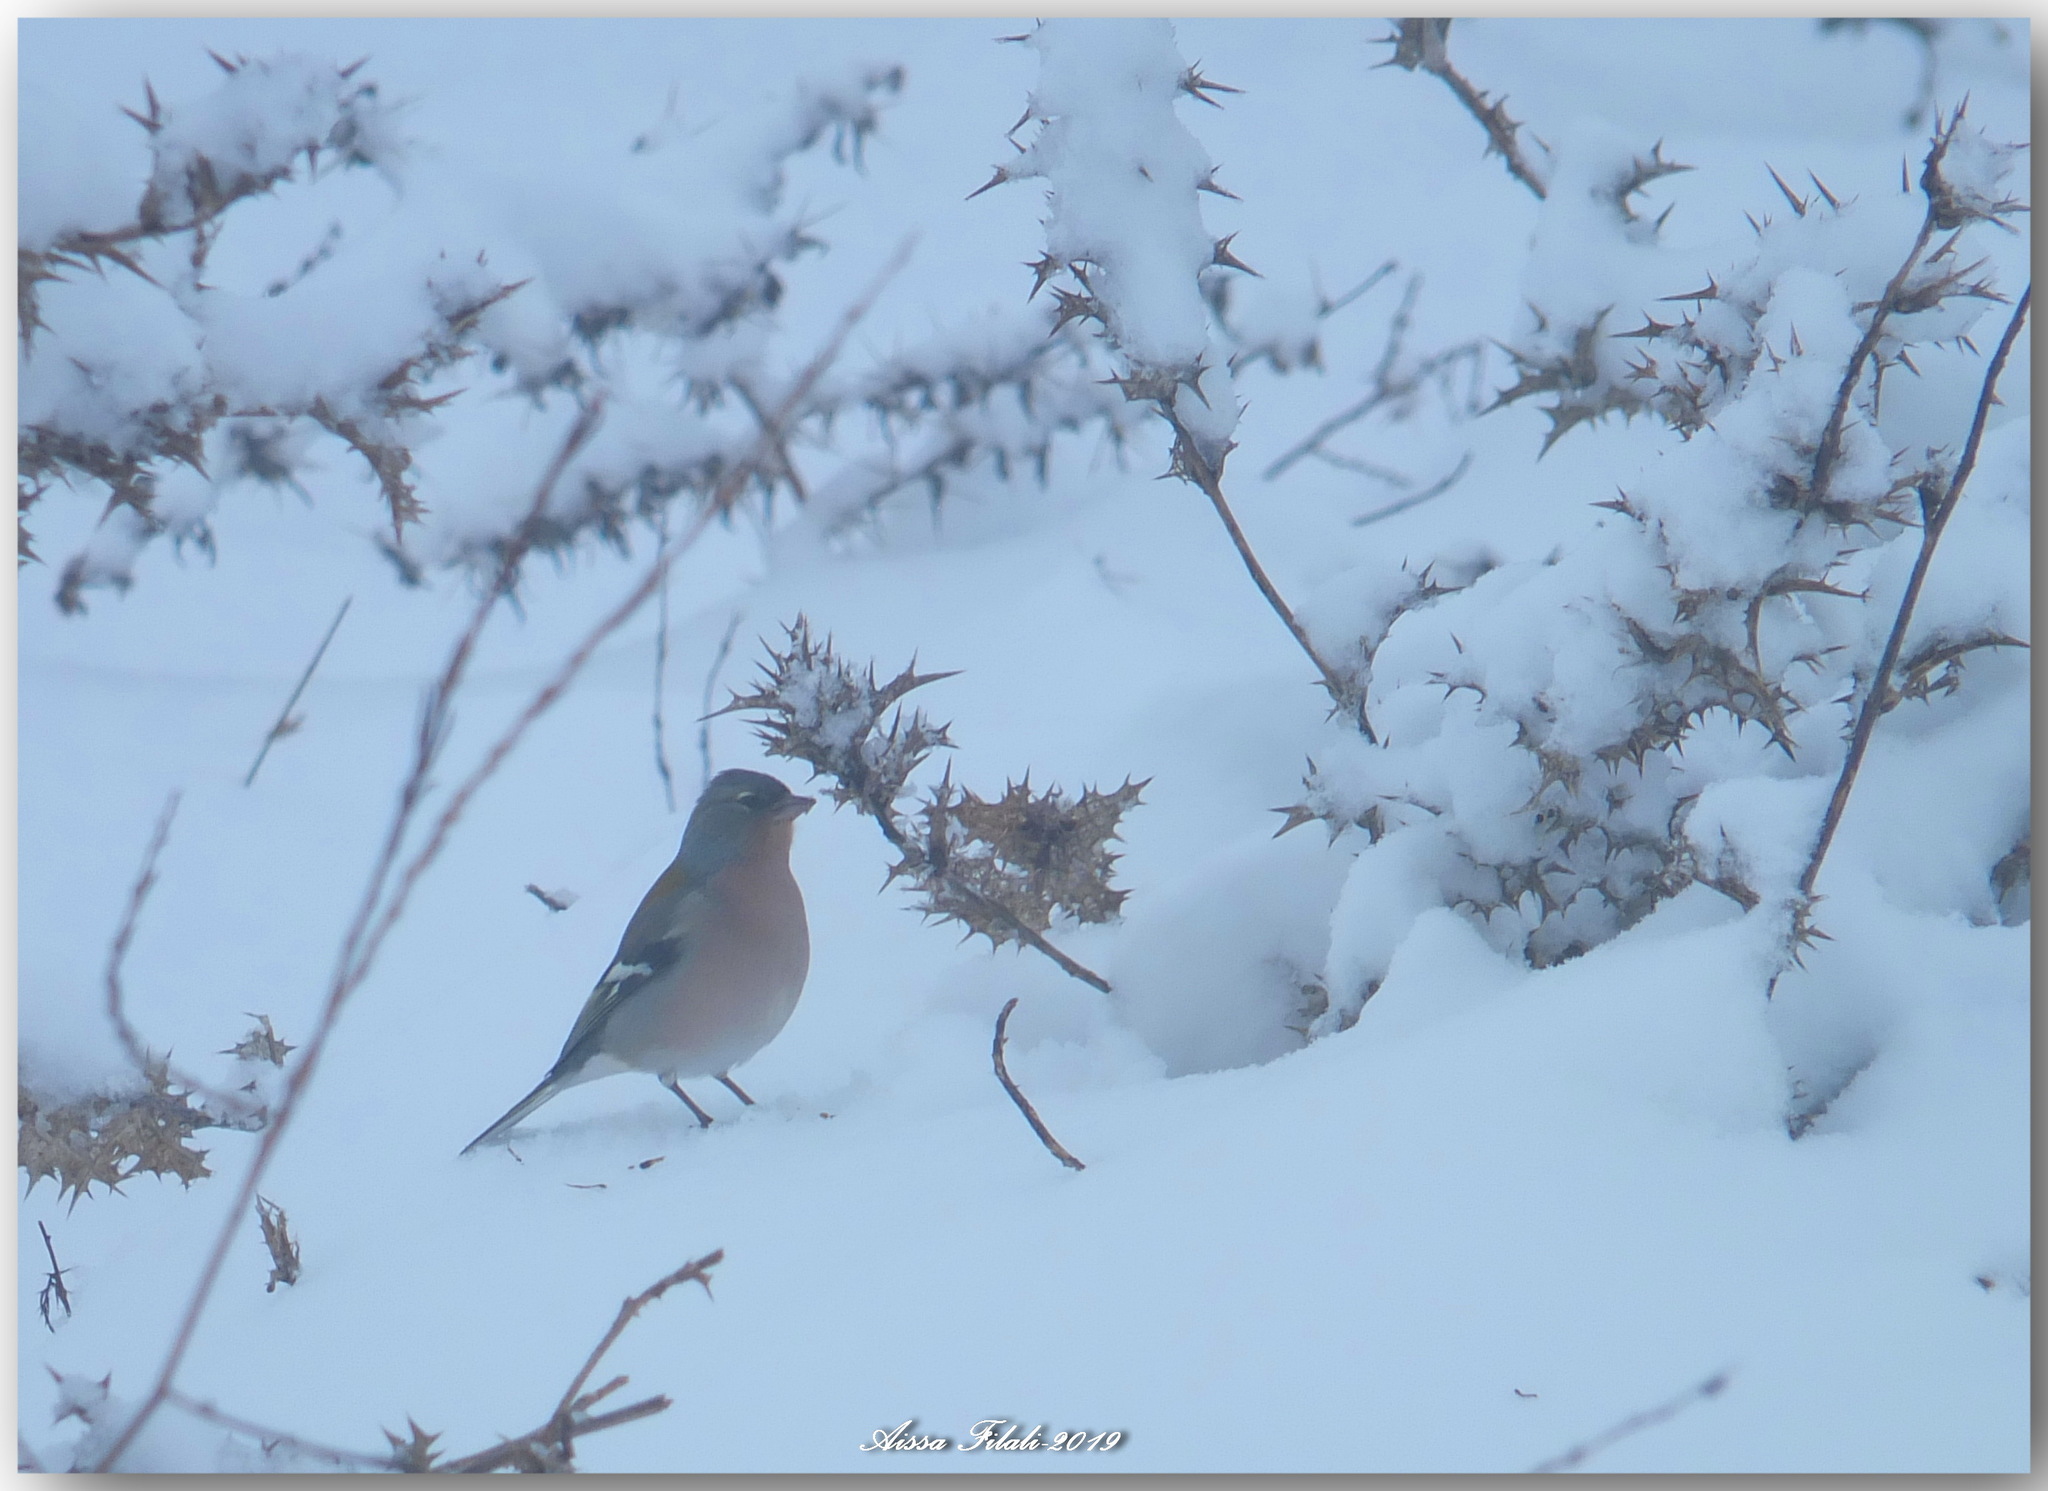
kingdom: Animalia
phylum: Chordata
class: Aves
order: Passeriformes
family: Fringillidae
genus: Fringilla
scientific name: Fringilla spodiogenys
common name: African chaffinch
